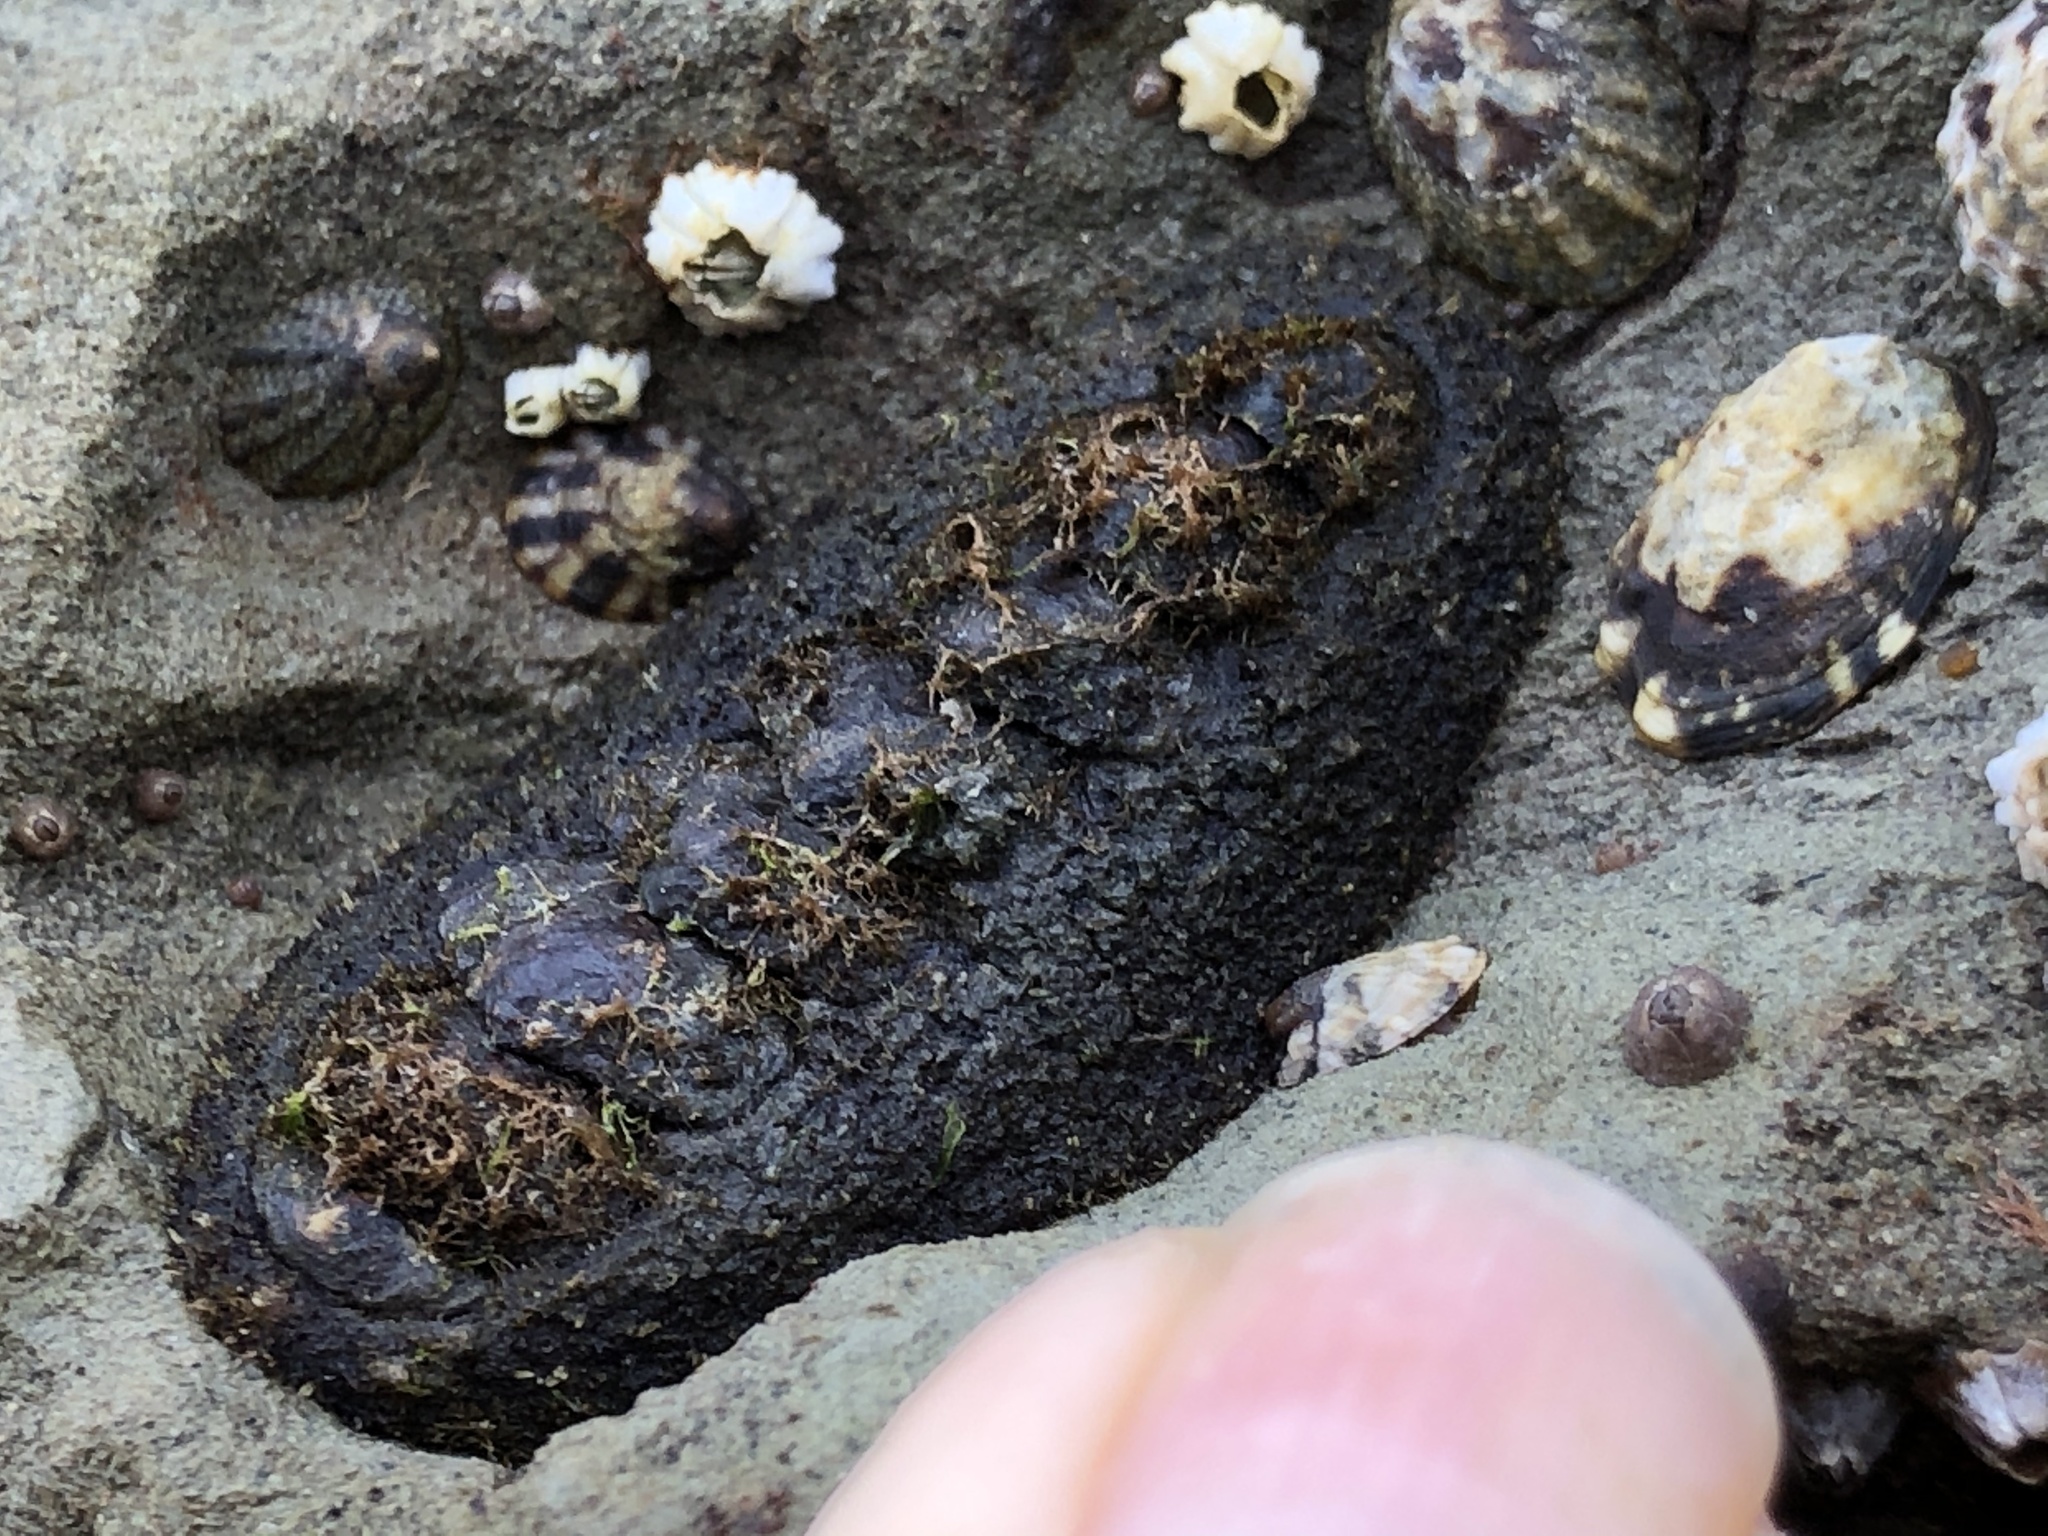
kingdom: Animalia
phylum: Mollusca
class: Polyplacophora
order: Chitonida
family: Tonicellidae
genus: Nuttallina
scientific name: Nuttallina californica
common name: California nuttall chiton
